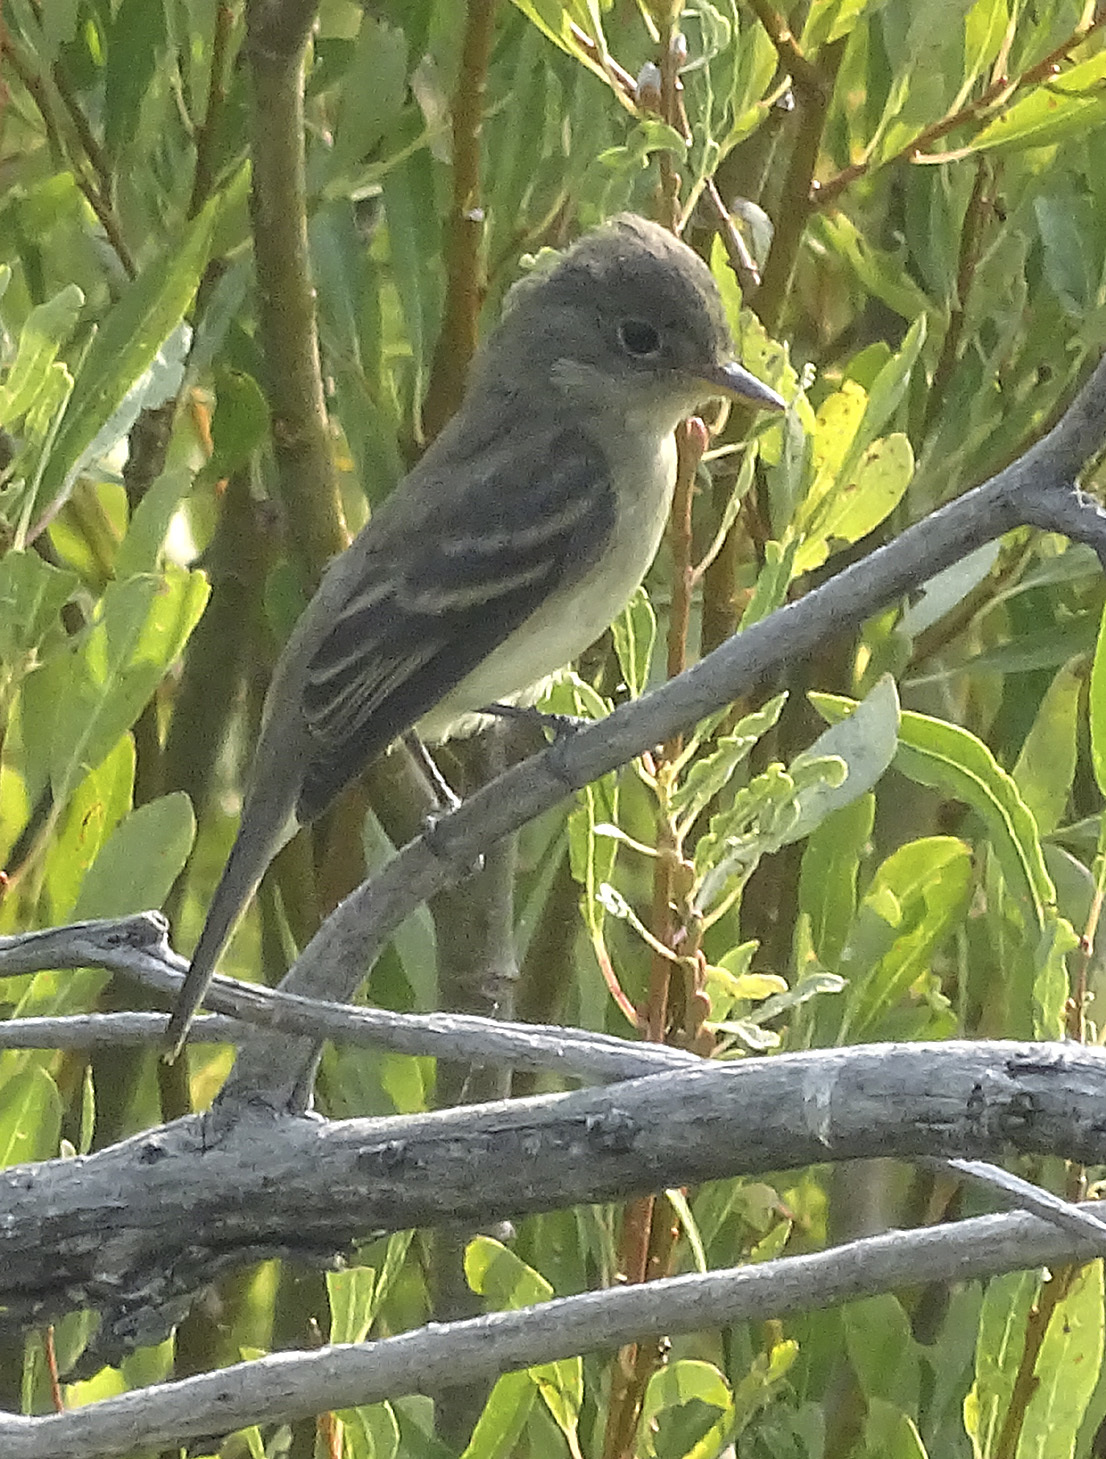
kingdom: Animalia
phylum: Chordata
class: Aves
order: Passeriformes
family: Tyrannidae
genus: Empidonax
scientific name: Empidonax traillii
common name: Willow flycatcher
